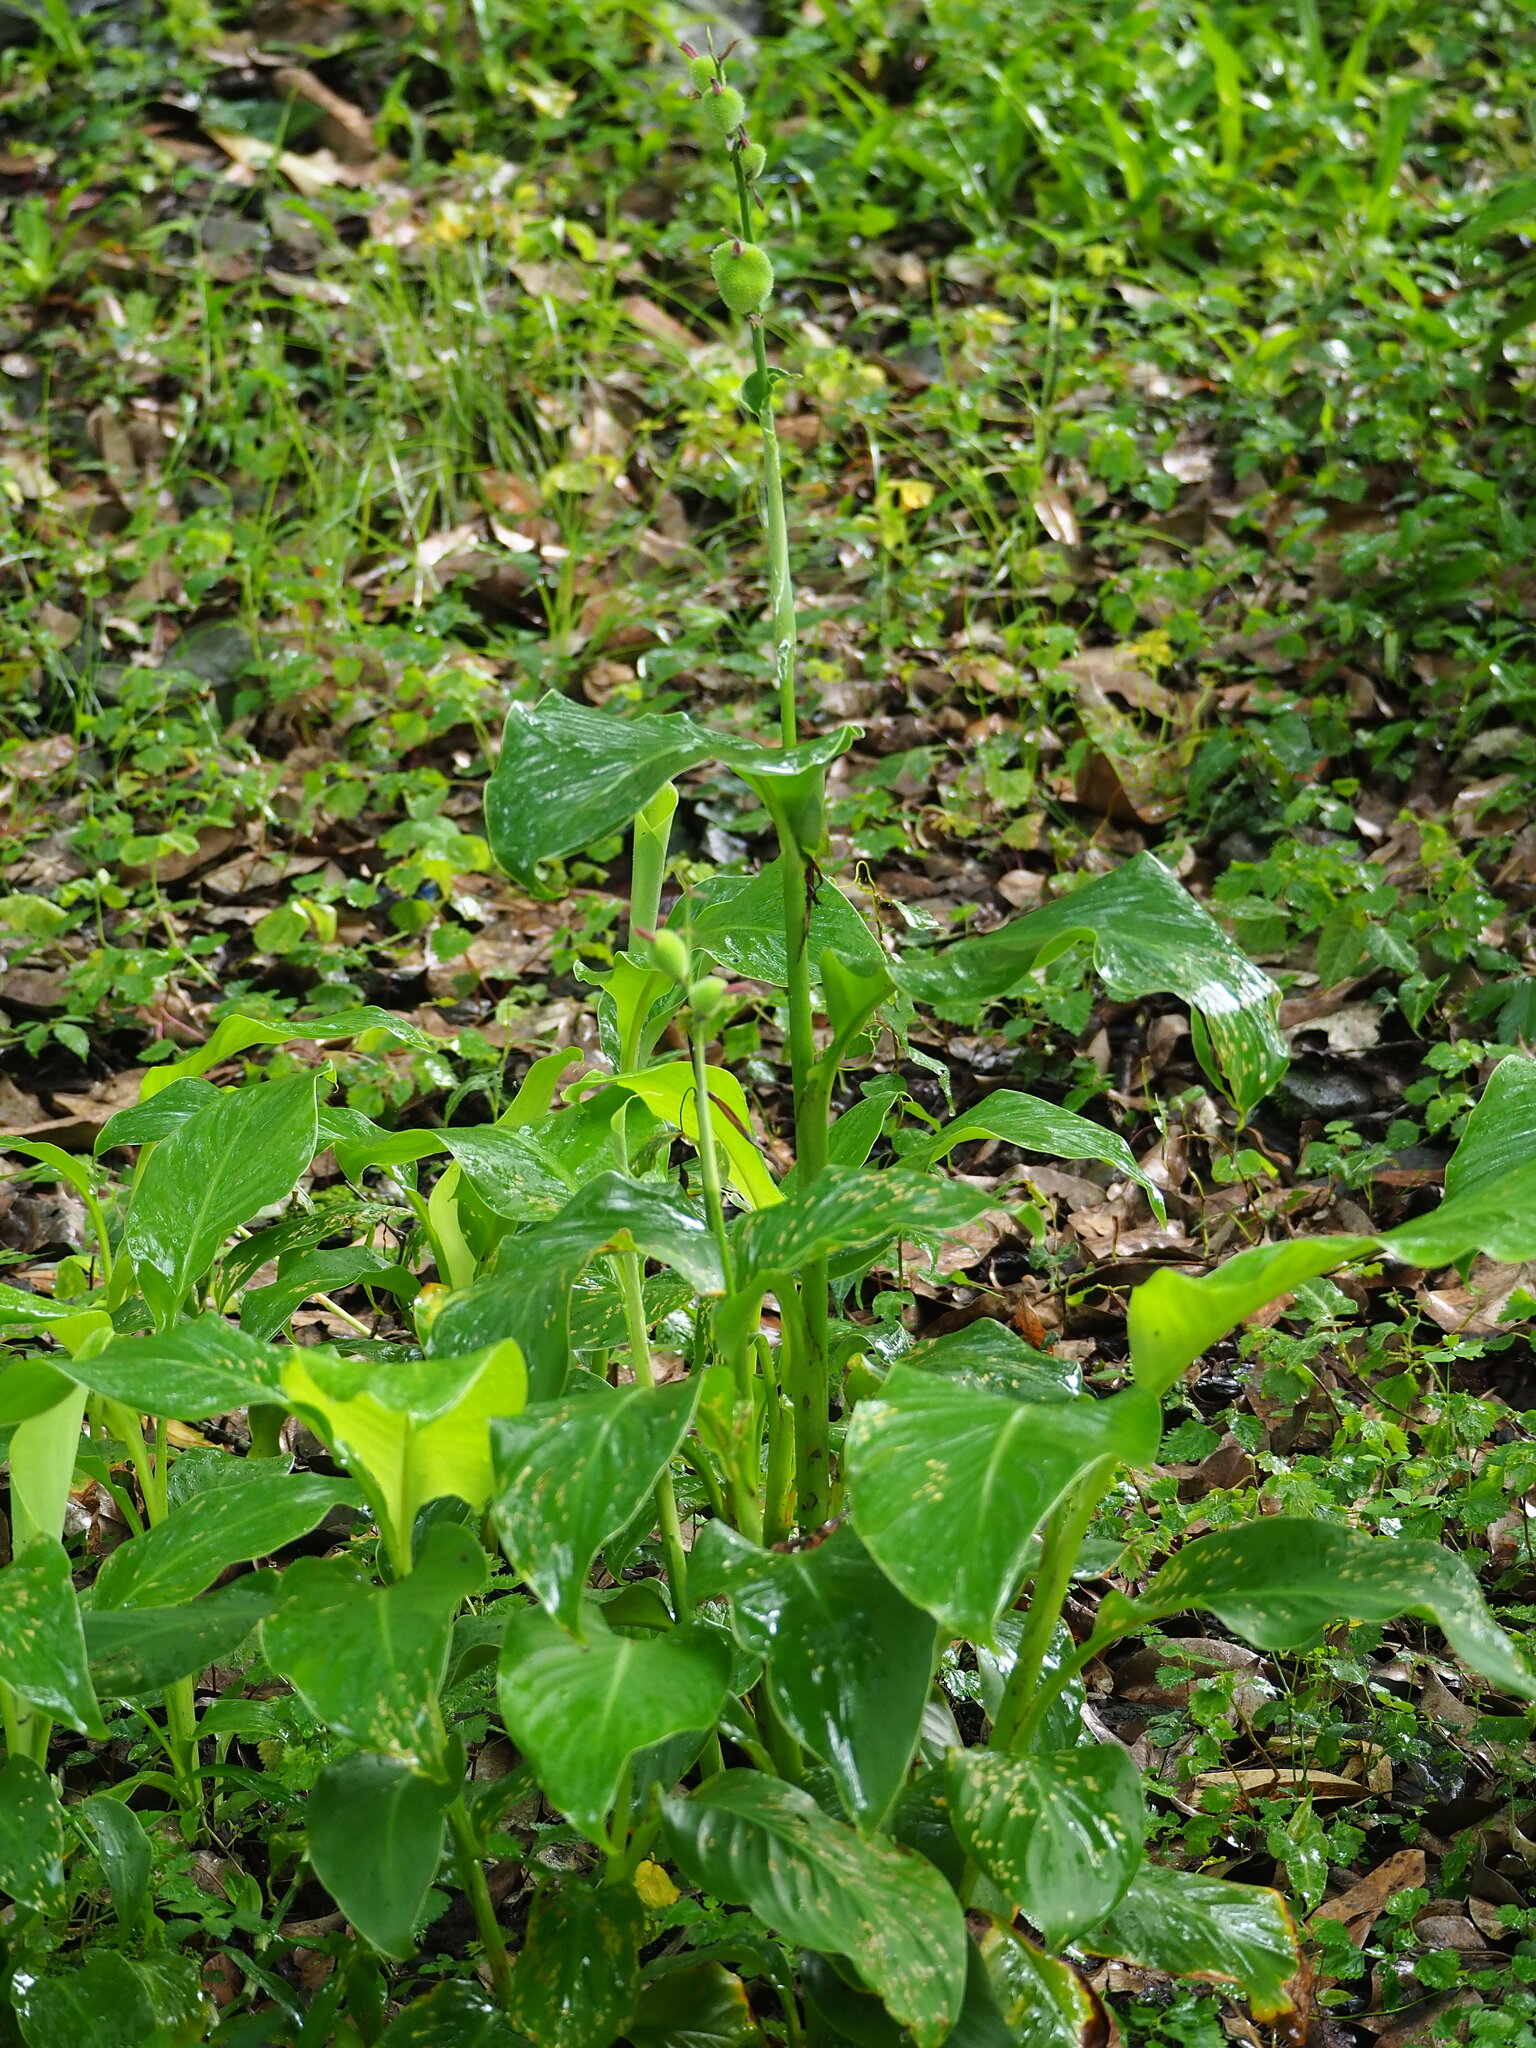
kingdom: Plantae
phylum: Tracheophyta
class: Liliopsida
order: Zingiberales
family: Cannaceae
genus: Canna
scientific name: Canna indica
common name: Indian shot
